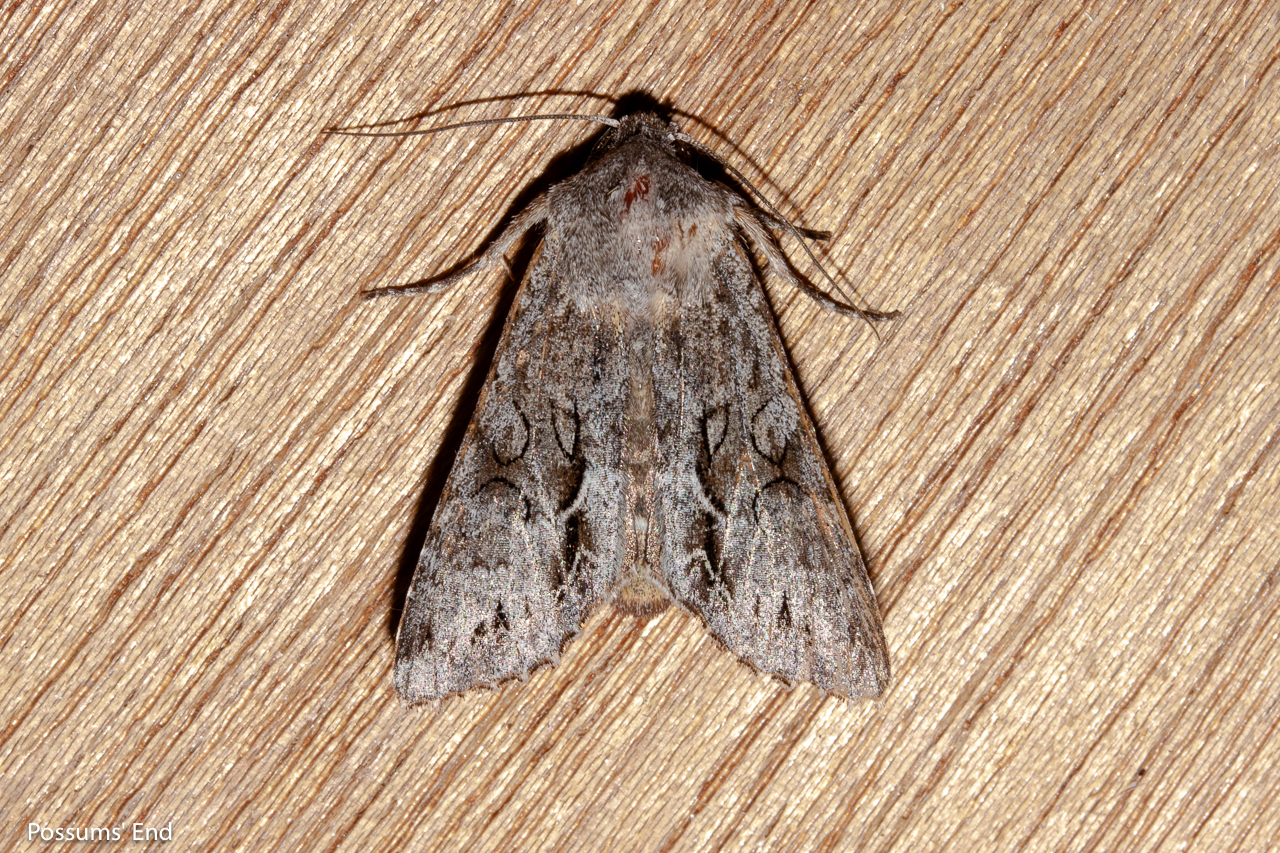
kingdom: Animalia
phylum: Arthropoda
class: Insecta
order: Lepidoptera
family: Noctuidae
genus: Ichneutica
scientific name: Ichneutica
